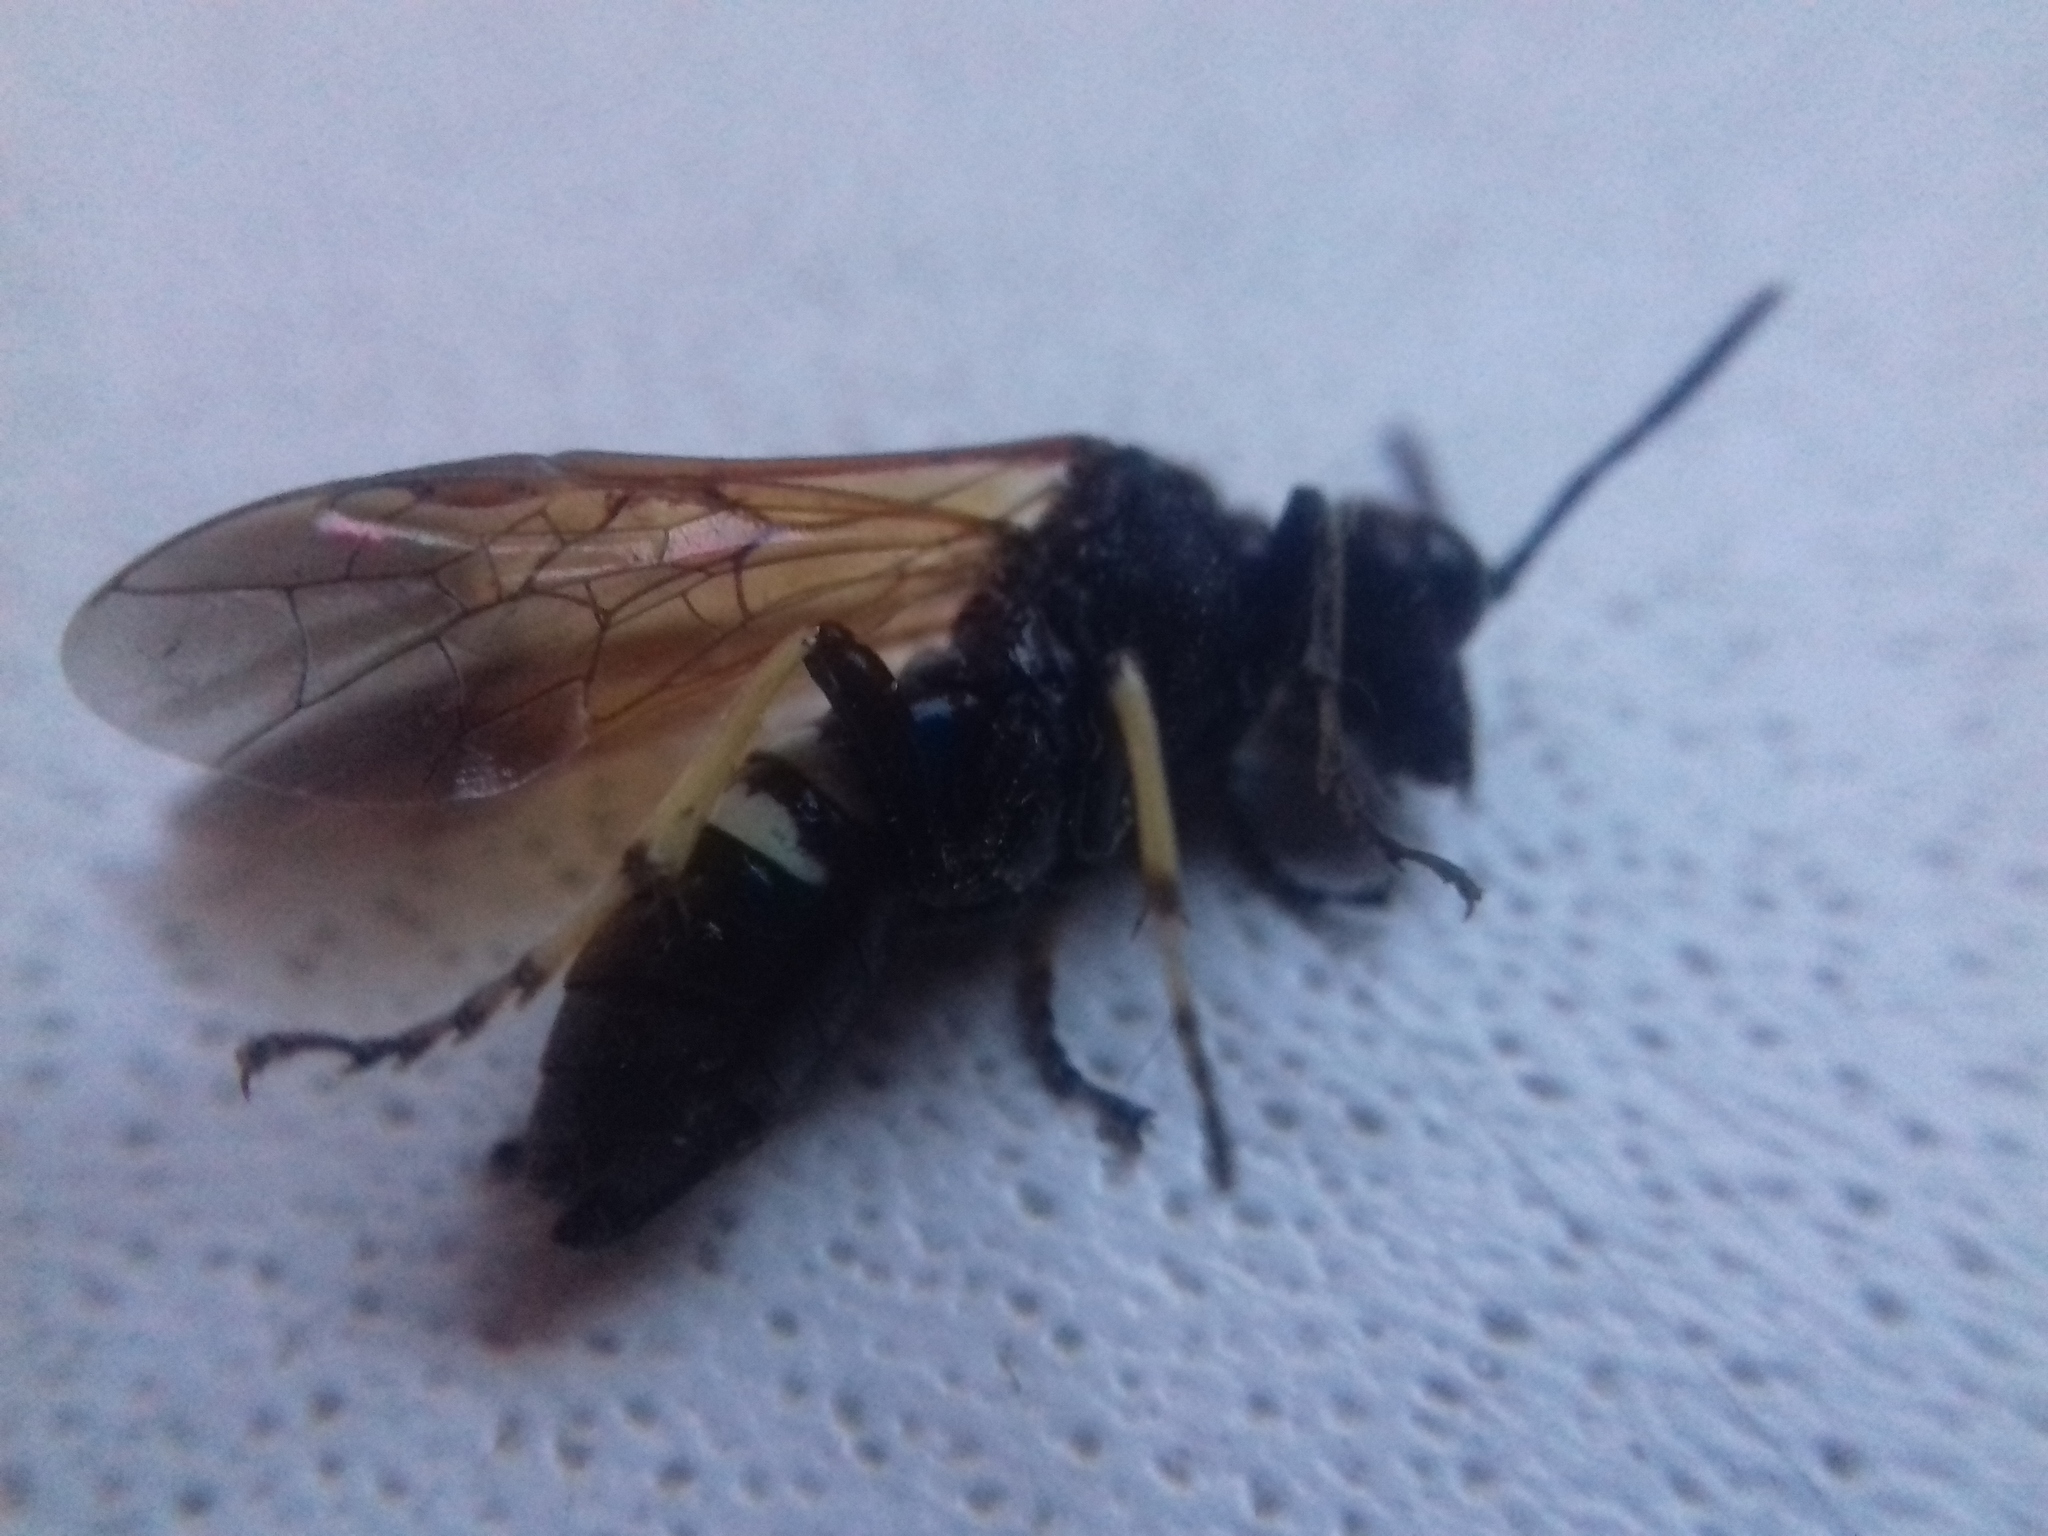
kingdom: Animalia
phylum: Arthropoda
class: Insecta
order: Hymenoptera
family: Tenthredinidae
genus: Tenthredo
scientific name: Tenthredo bifasciata
